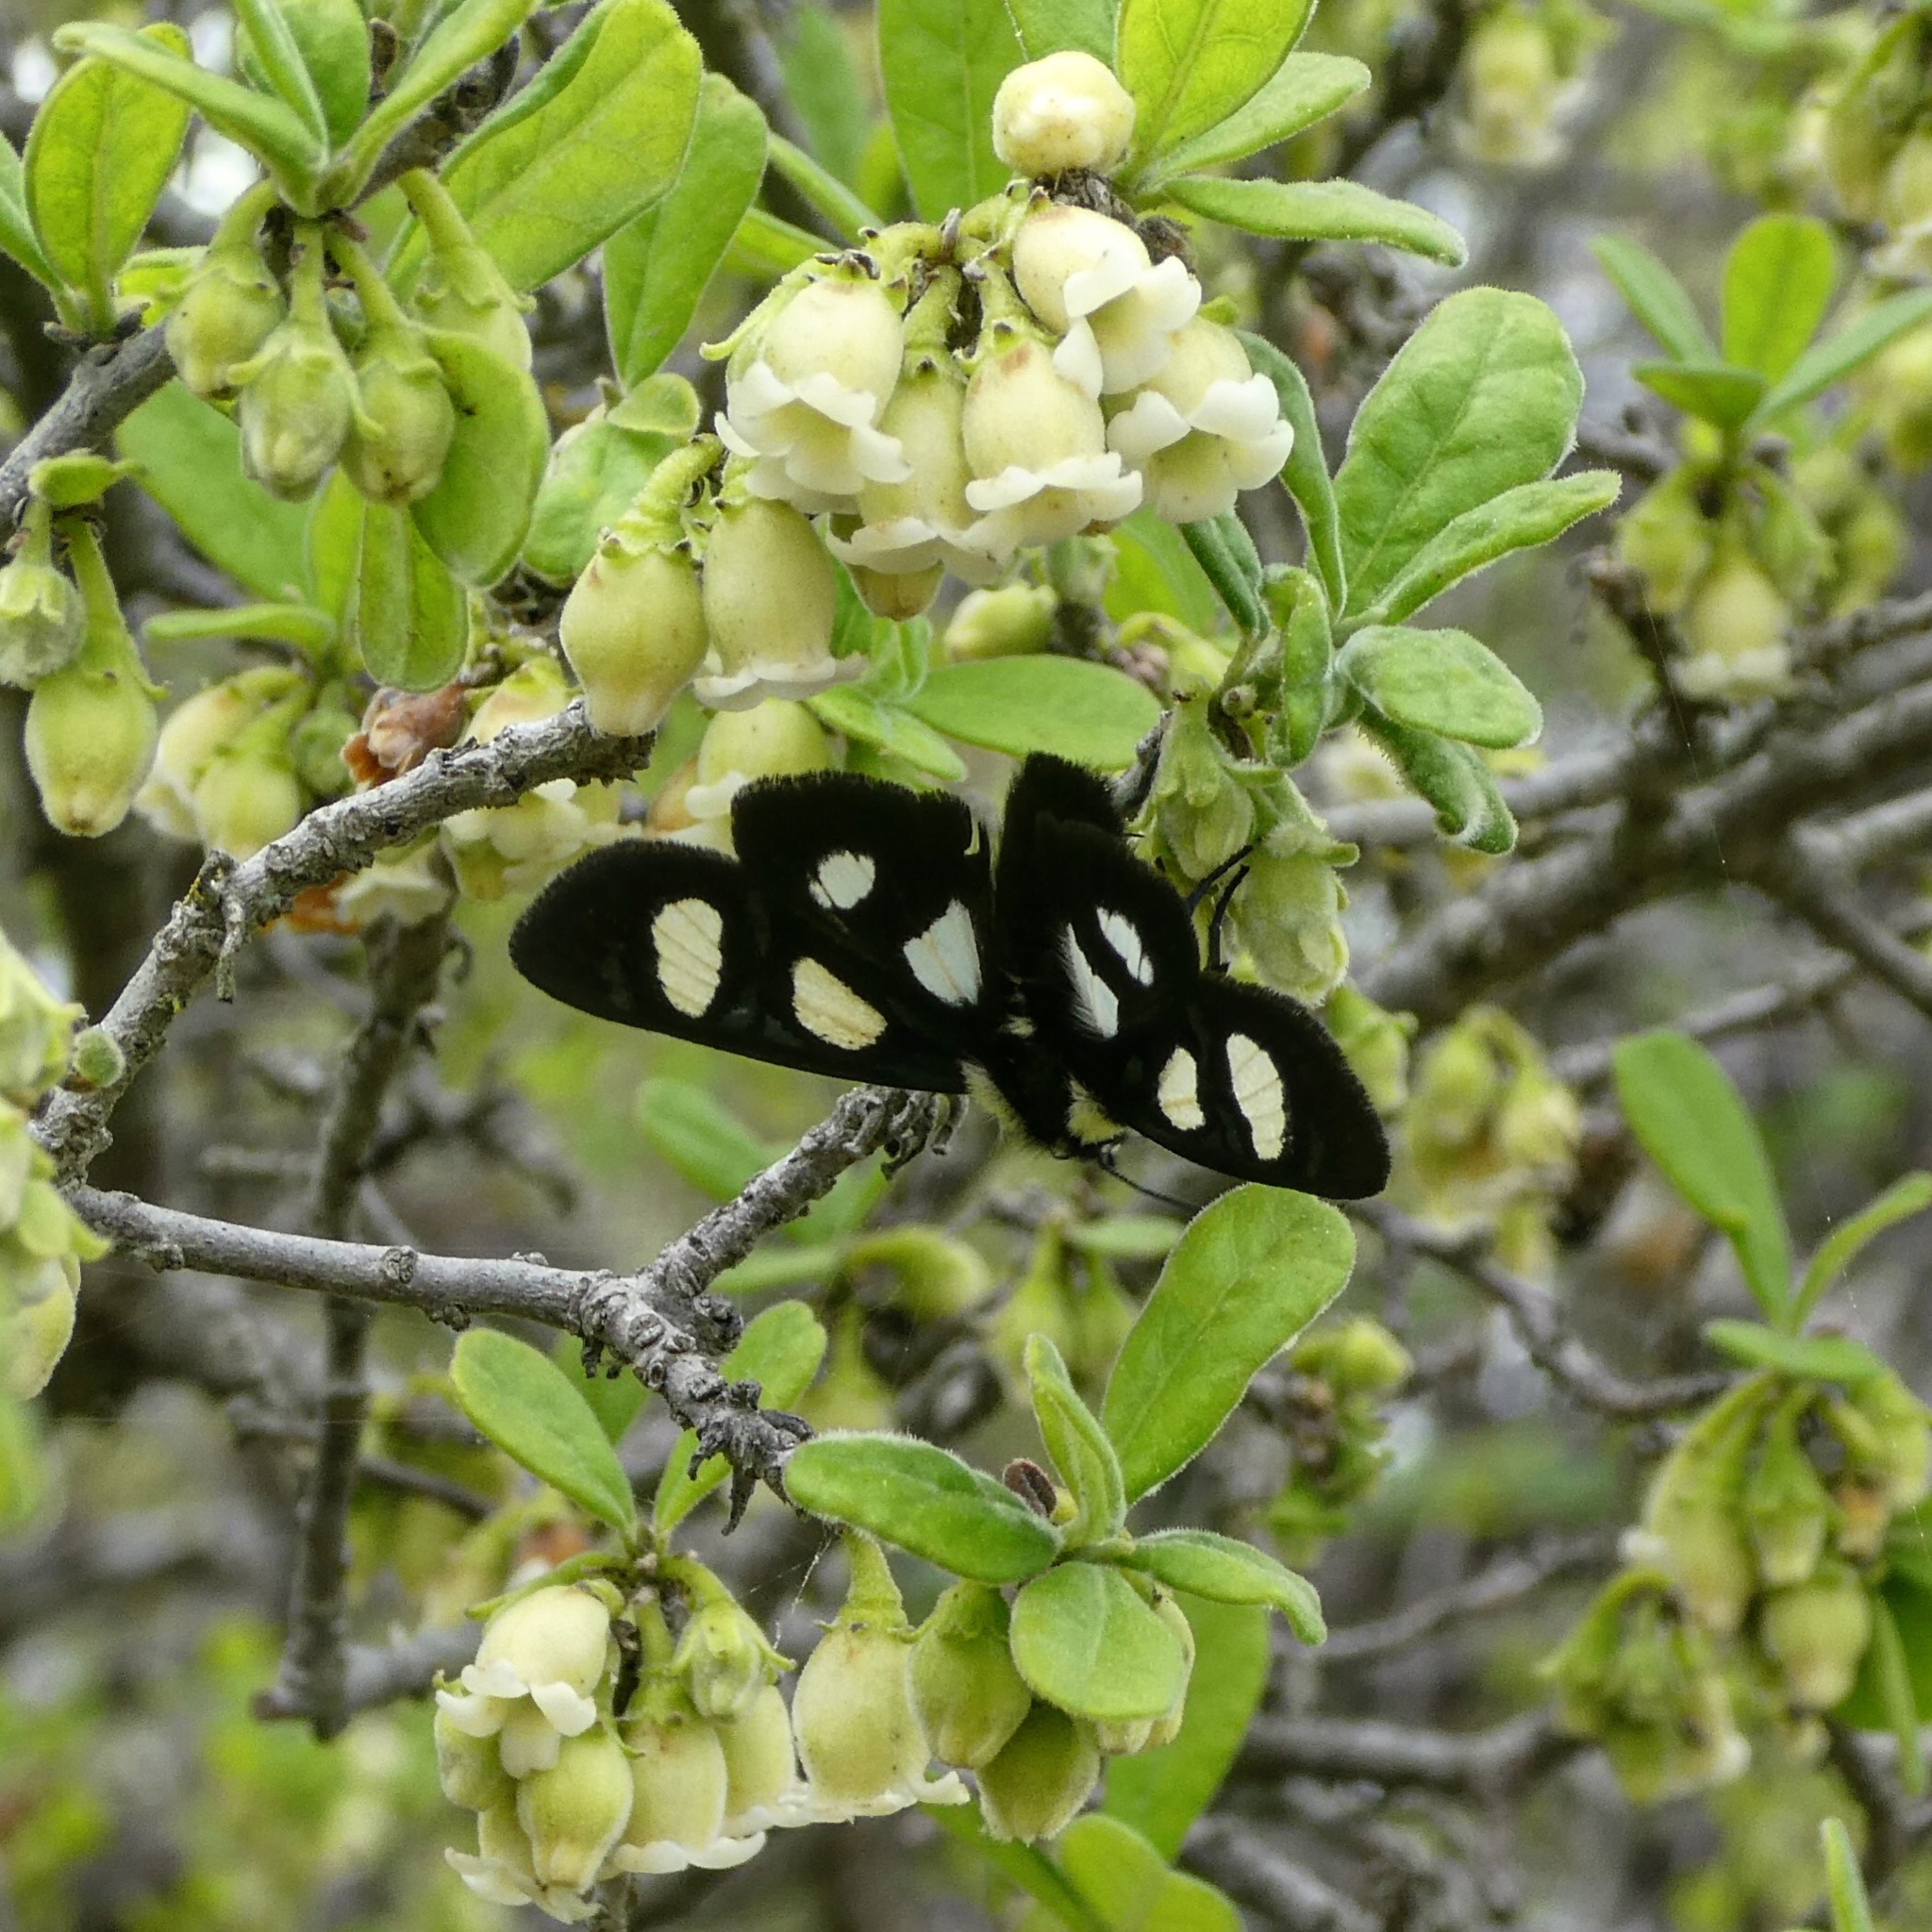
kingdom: Animalia
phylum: Arthropoda
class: Insecta
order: Lepidoptera
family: Noctuidae
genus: Alypia
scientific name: Alypia octomaculata
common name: Eight-spotted forester
